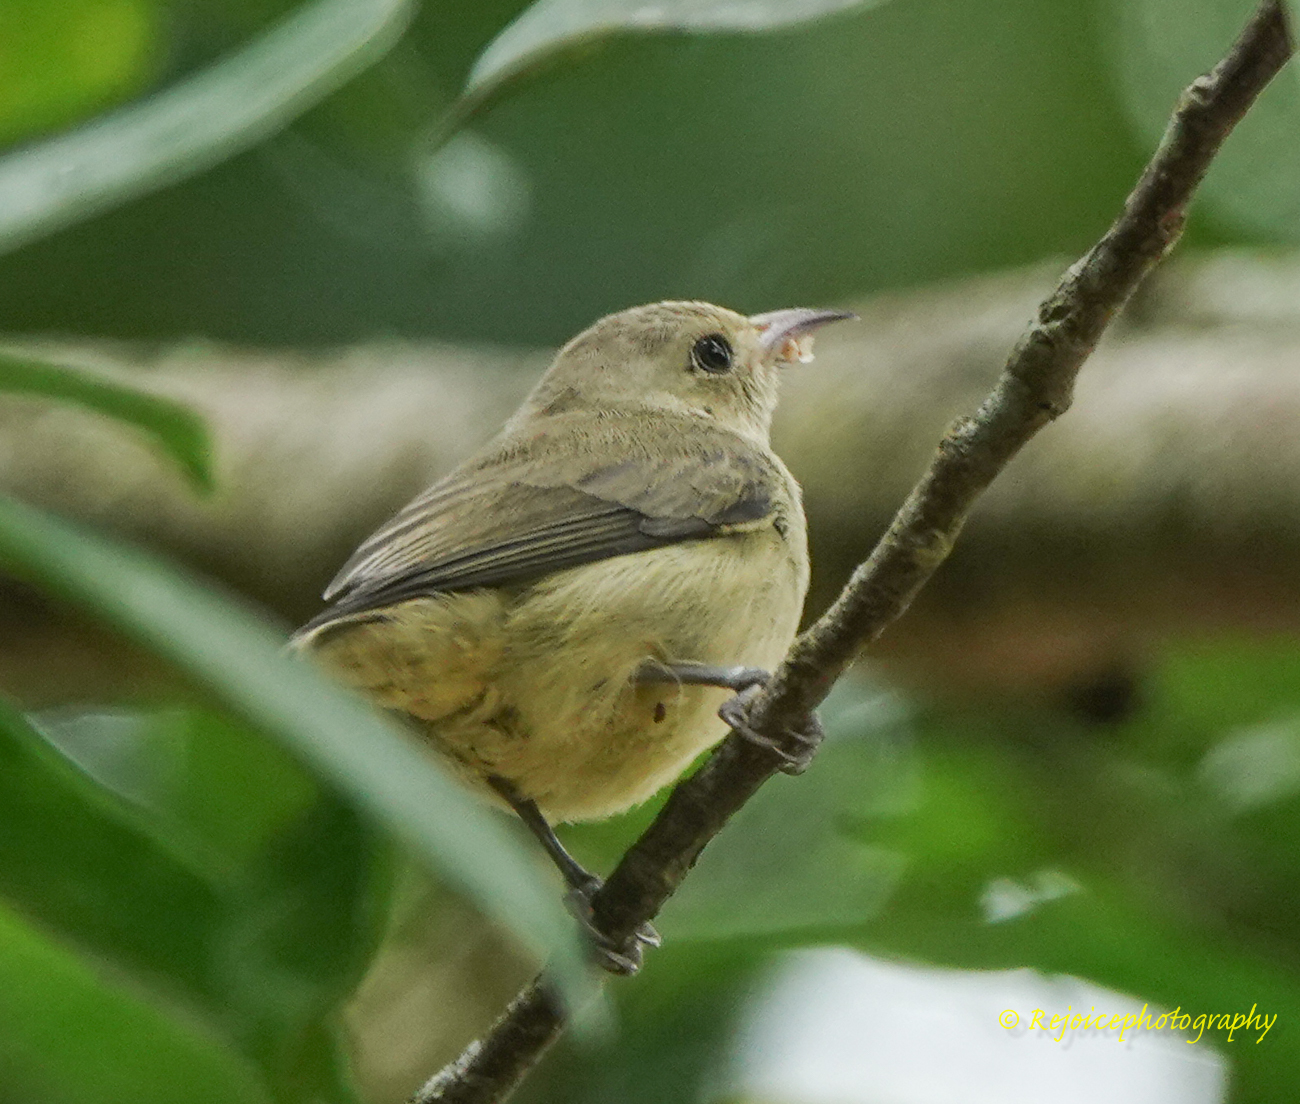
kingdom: Animalia
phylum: Chordata
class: Aves
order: Passeriformes
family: Dicaeidae
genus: Dicaeum
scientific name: Dicaeum minullum
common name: Plain flowerpecker
